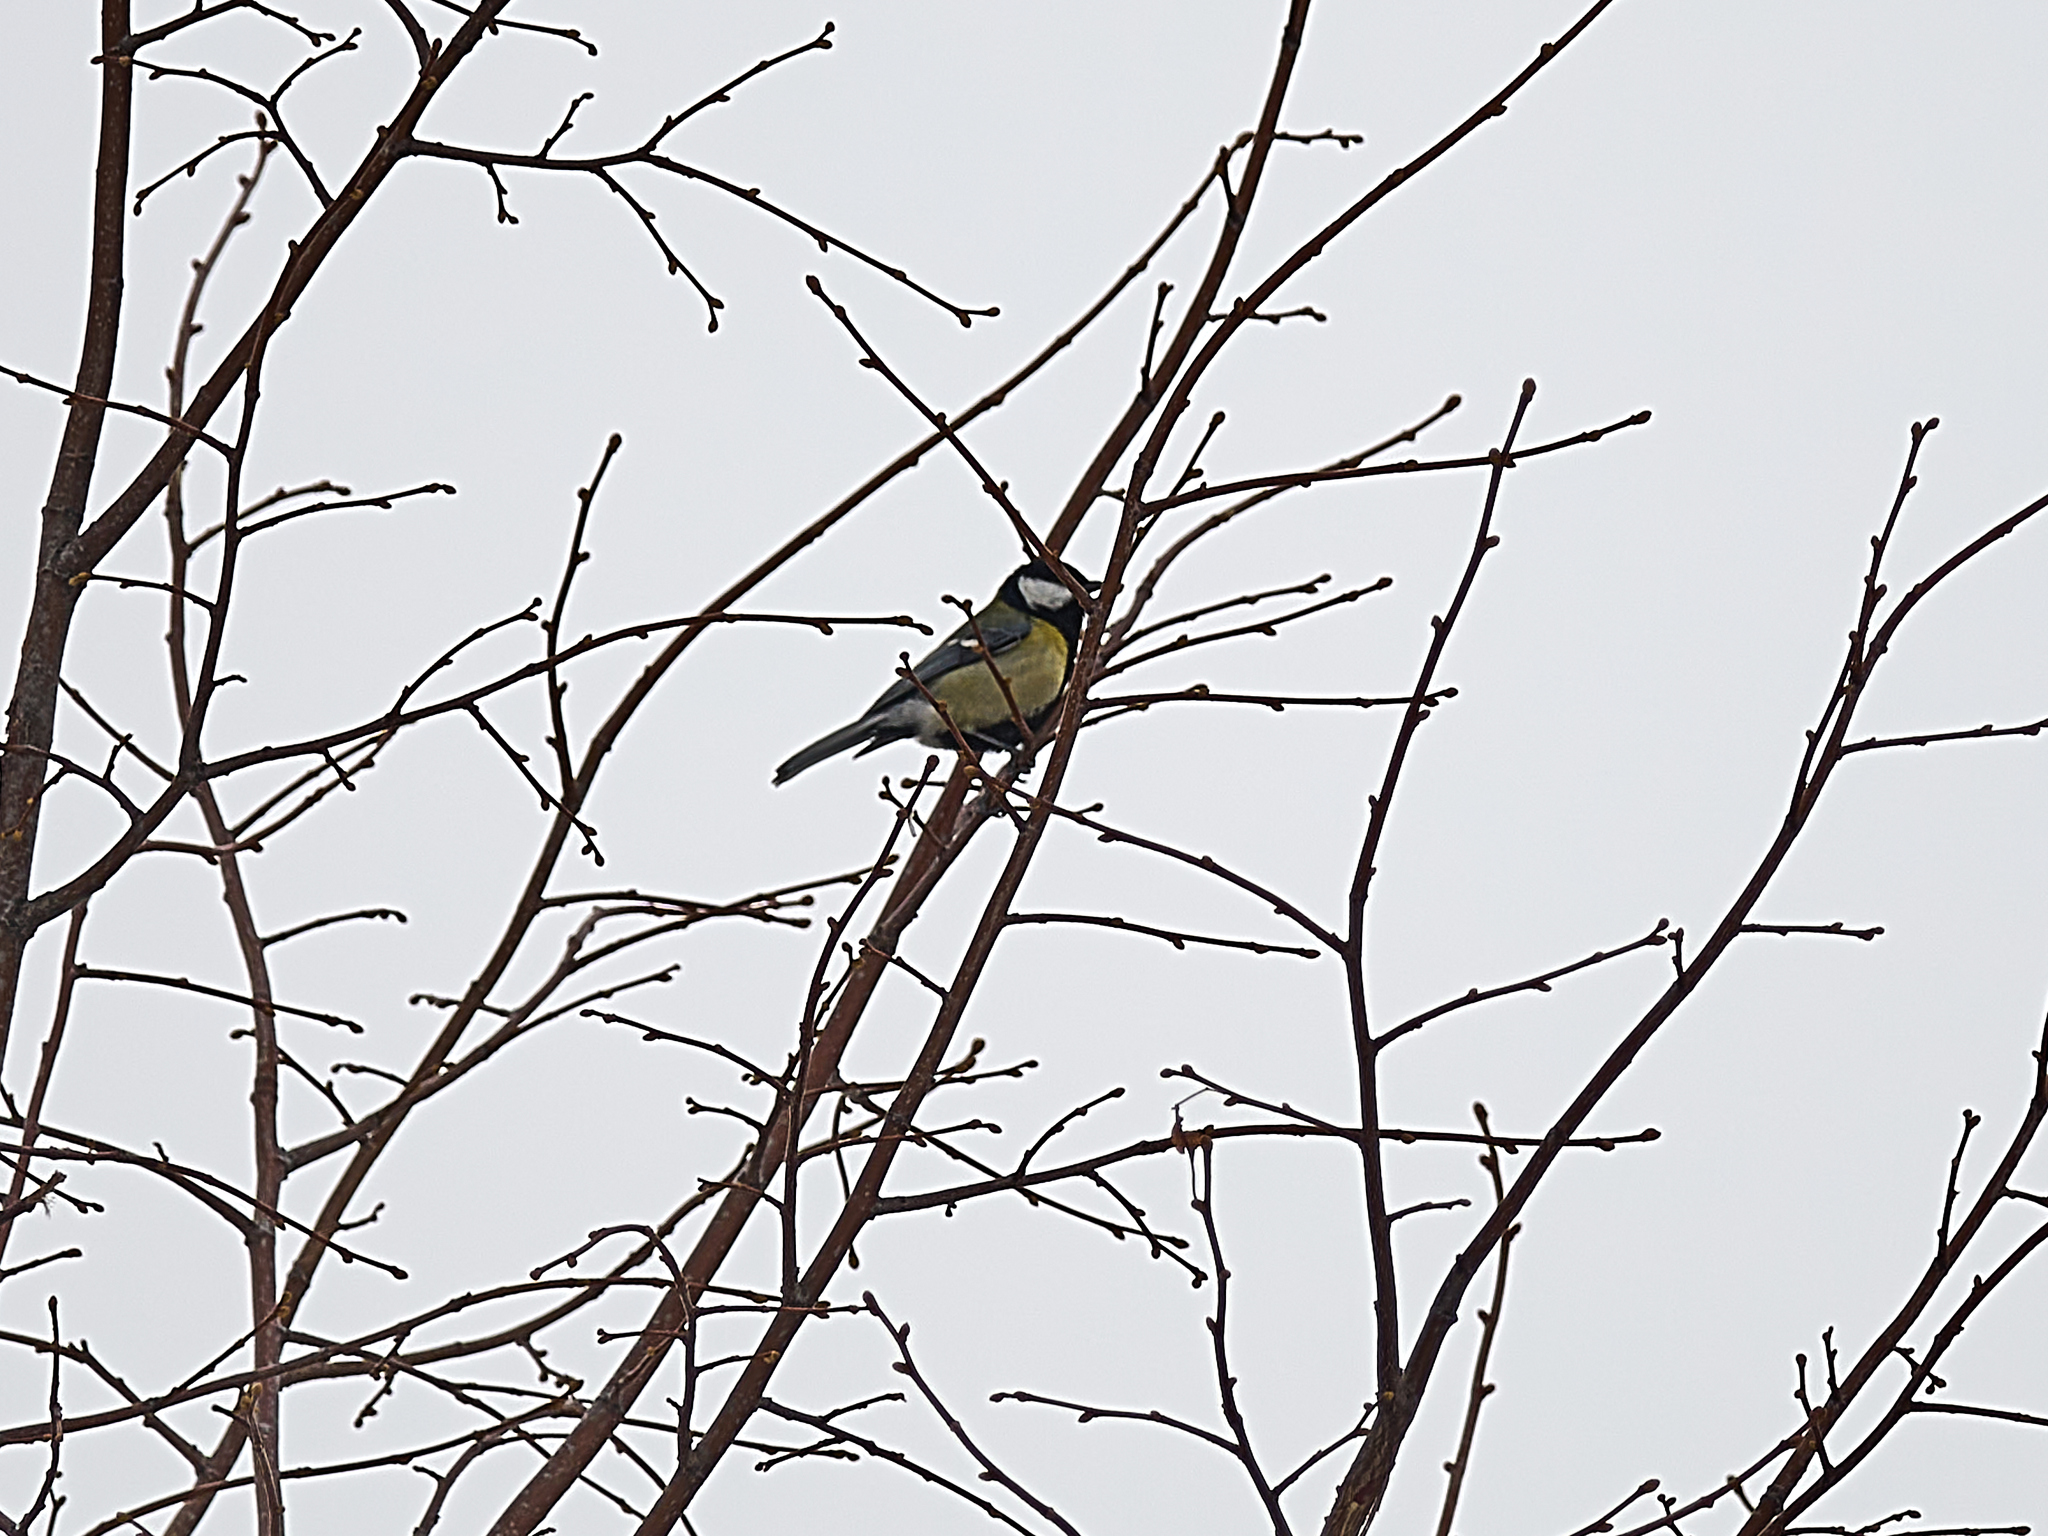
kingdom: Animalia
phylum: Chordata
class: Aves
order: Passeriformes
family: Paridae
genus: Parus
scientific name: Parus major
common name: Great tit
